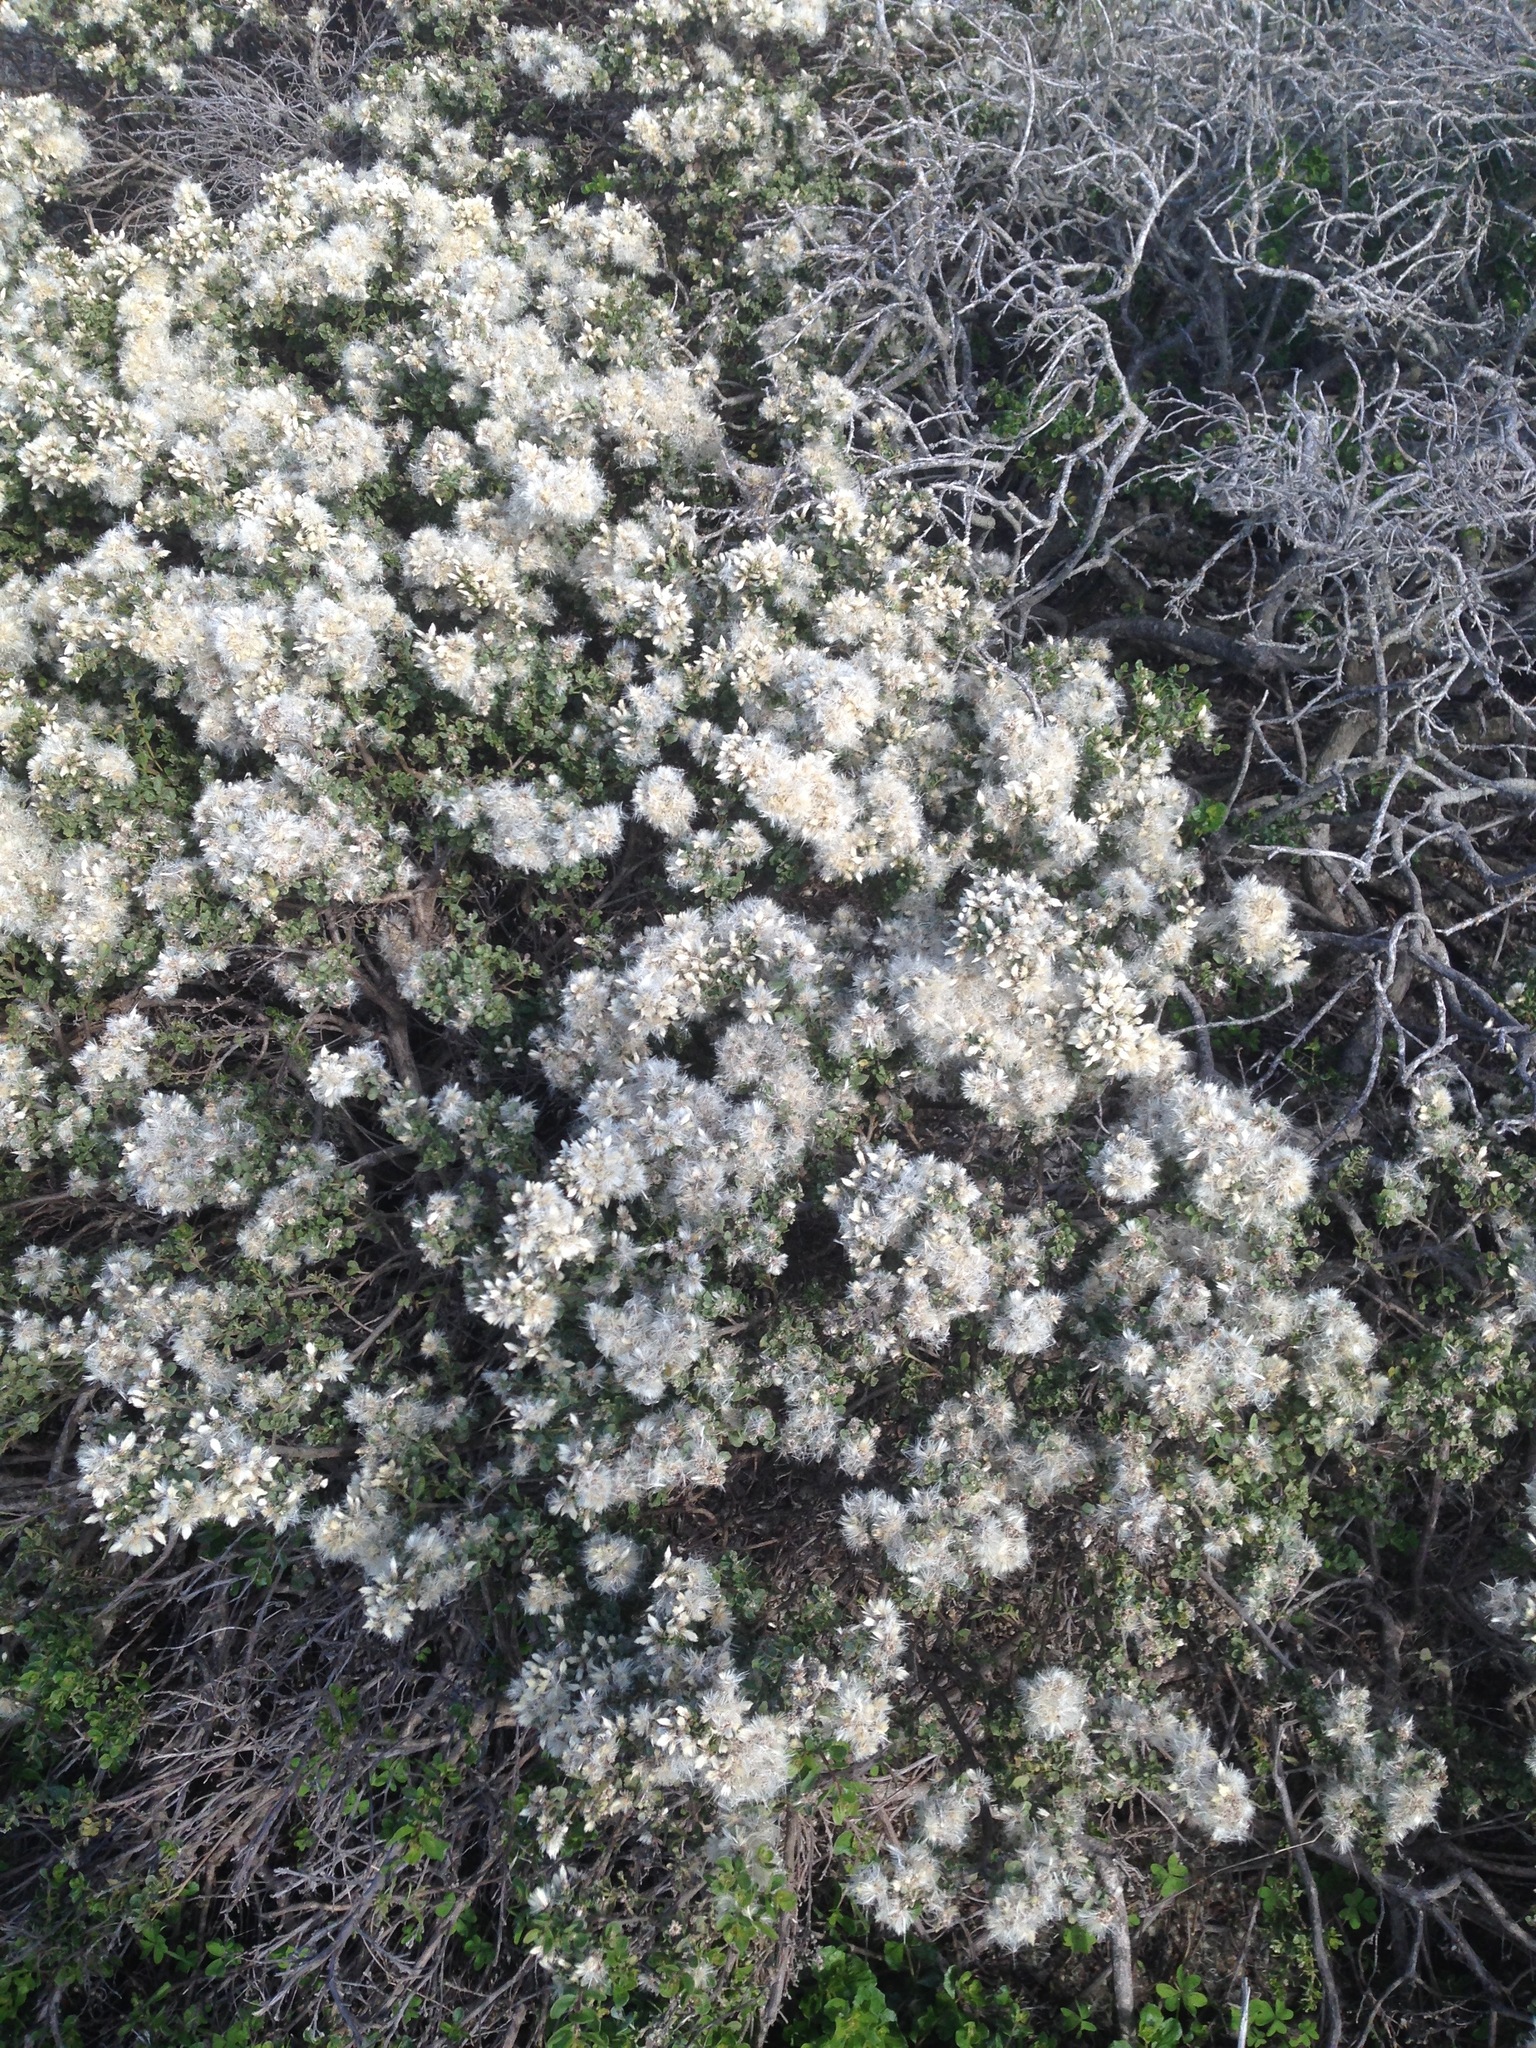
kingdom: Plantae
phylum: Tracheophyta
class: Magnoliopsida
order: Asterales
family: Asteraceae
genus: Baccharis
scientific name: Baccharis pilularis
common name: Coyotebrush
